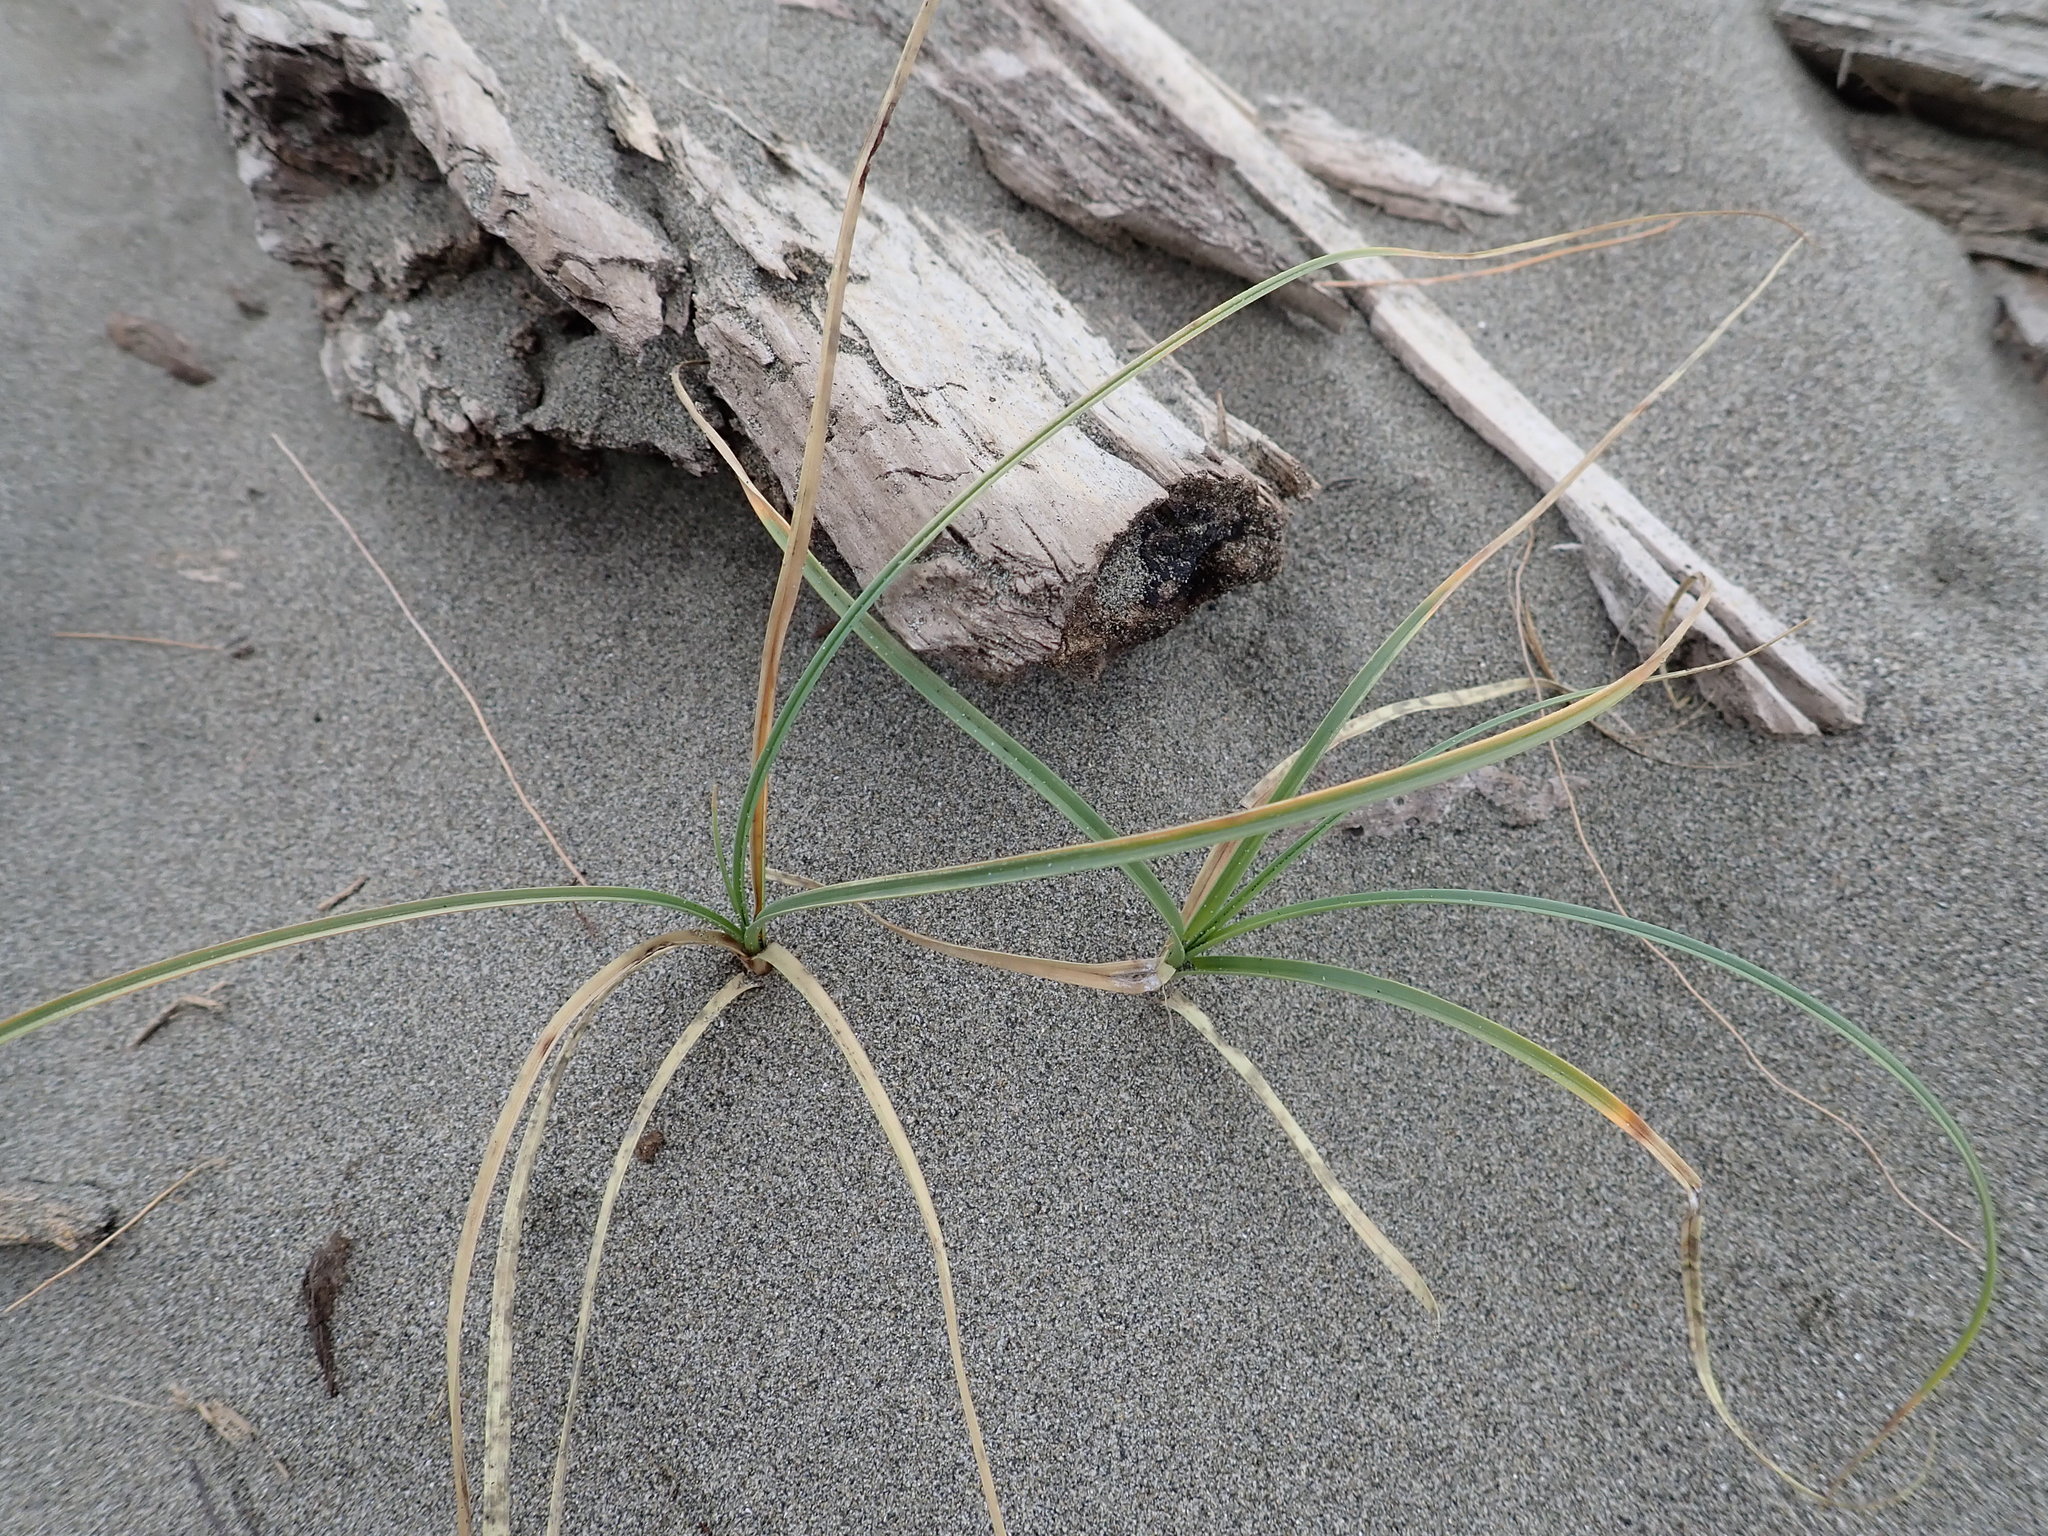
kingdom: Plantae
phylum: Tracheophyta
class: Liliopsida
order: Poales
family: Cyperaceae
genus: Carex
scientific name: Carex pumila
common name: Dwarf sedge
